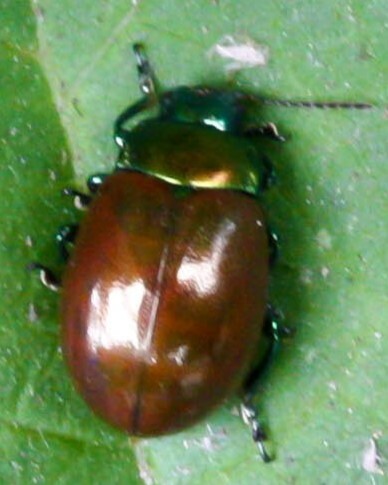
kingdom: Animalia
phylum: Arthropoda
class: Insecta
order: Coleoptera
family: Chrysomelidae
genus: Chrysomela
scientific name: Chrysomela polita
